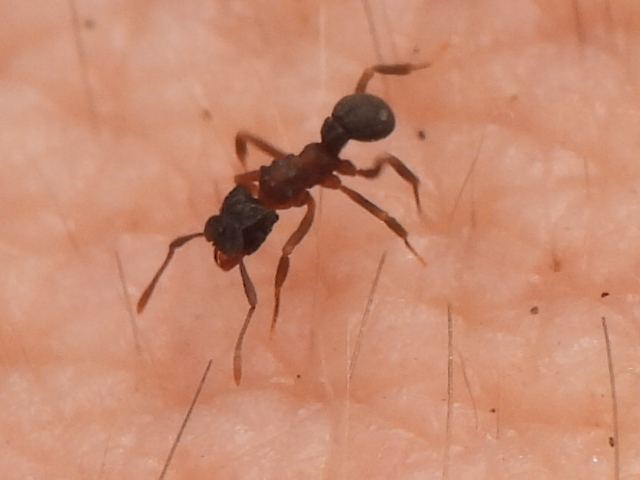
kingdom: Animalia
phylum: Arthropoda
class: Insecta
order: Hymenoptera
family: Formicidae
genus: Cyphomyrmex
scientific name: Cyphomyrmex rimosus
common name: Rimose fungus ant
